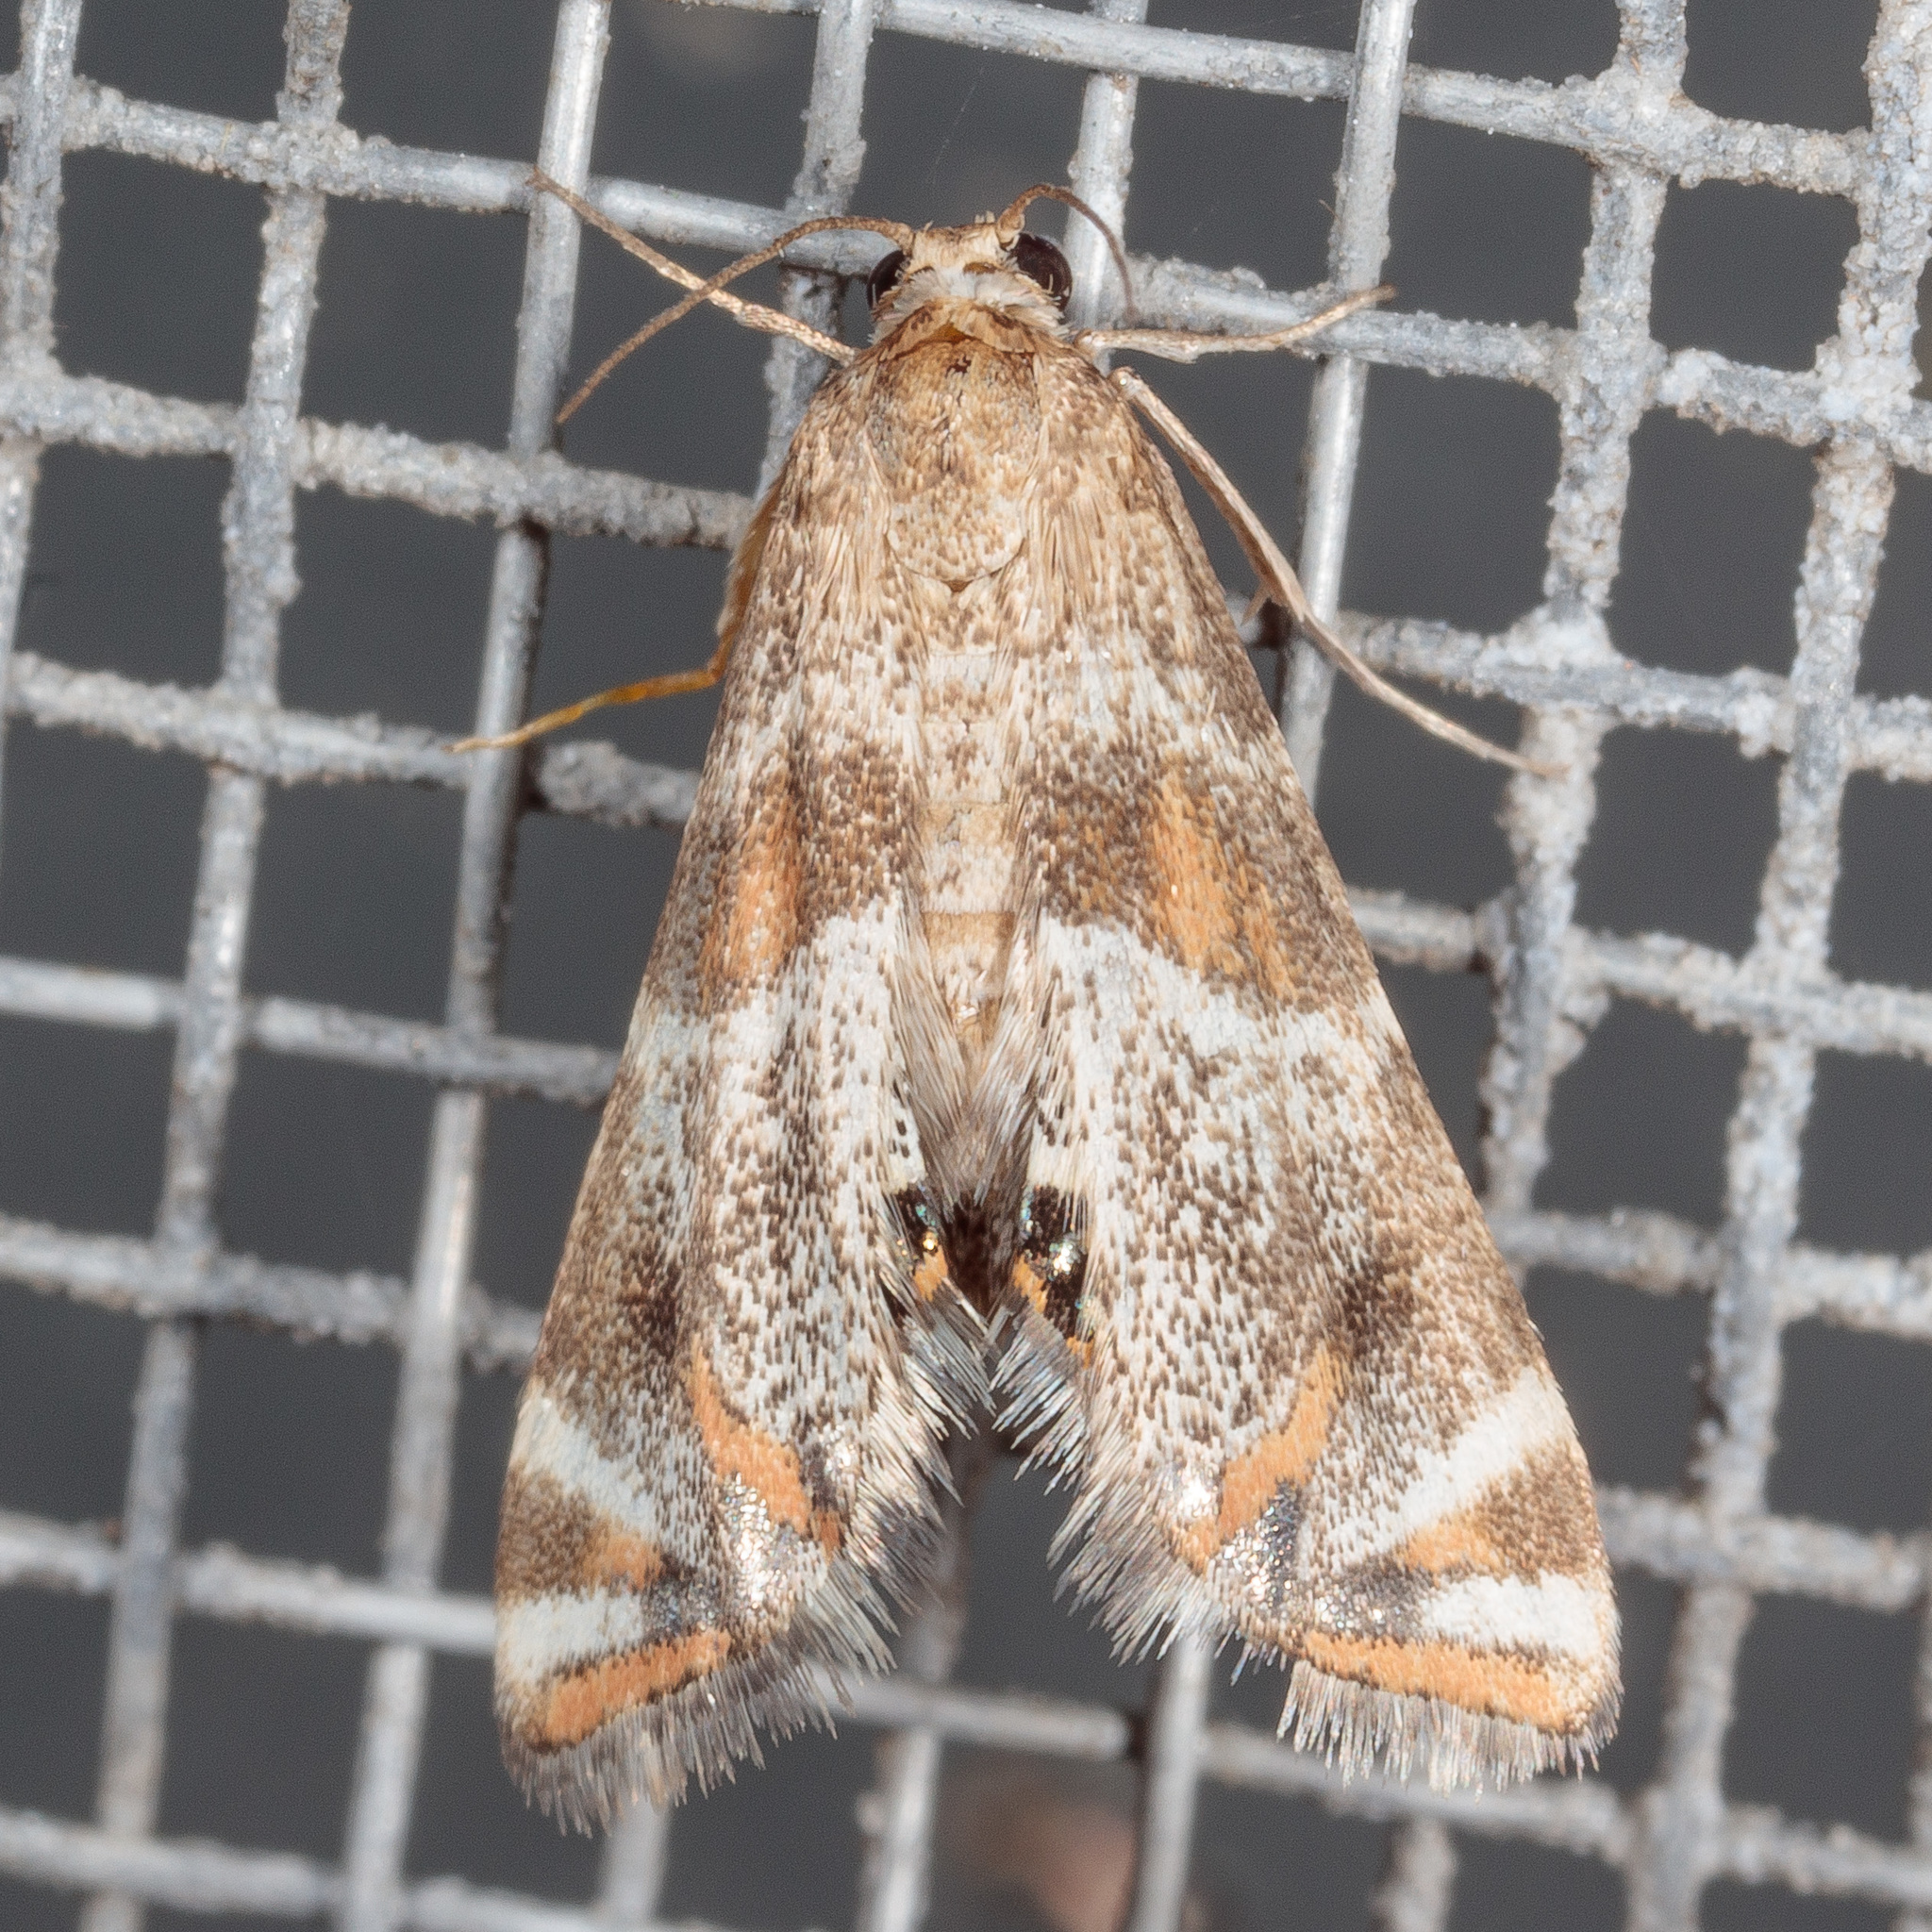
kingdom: Animalia
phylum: Arthropoda
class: Insecta
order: Lepidoptera
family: Crambidae
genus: Petrophila
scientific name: Petrophila jaliscalis
